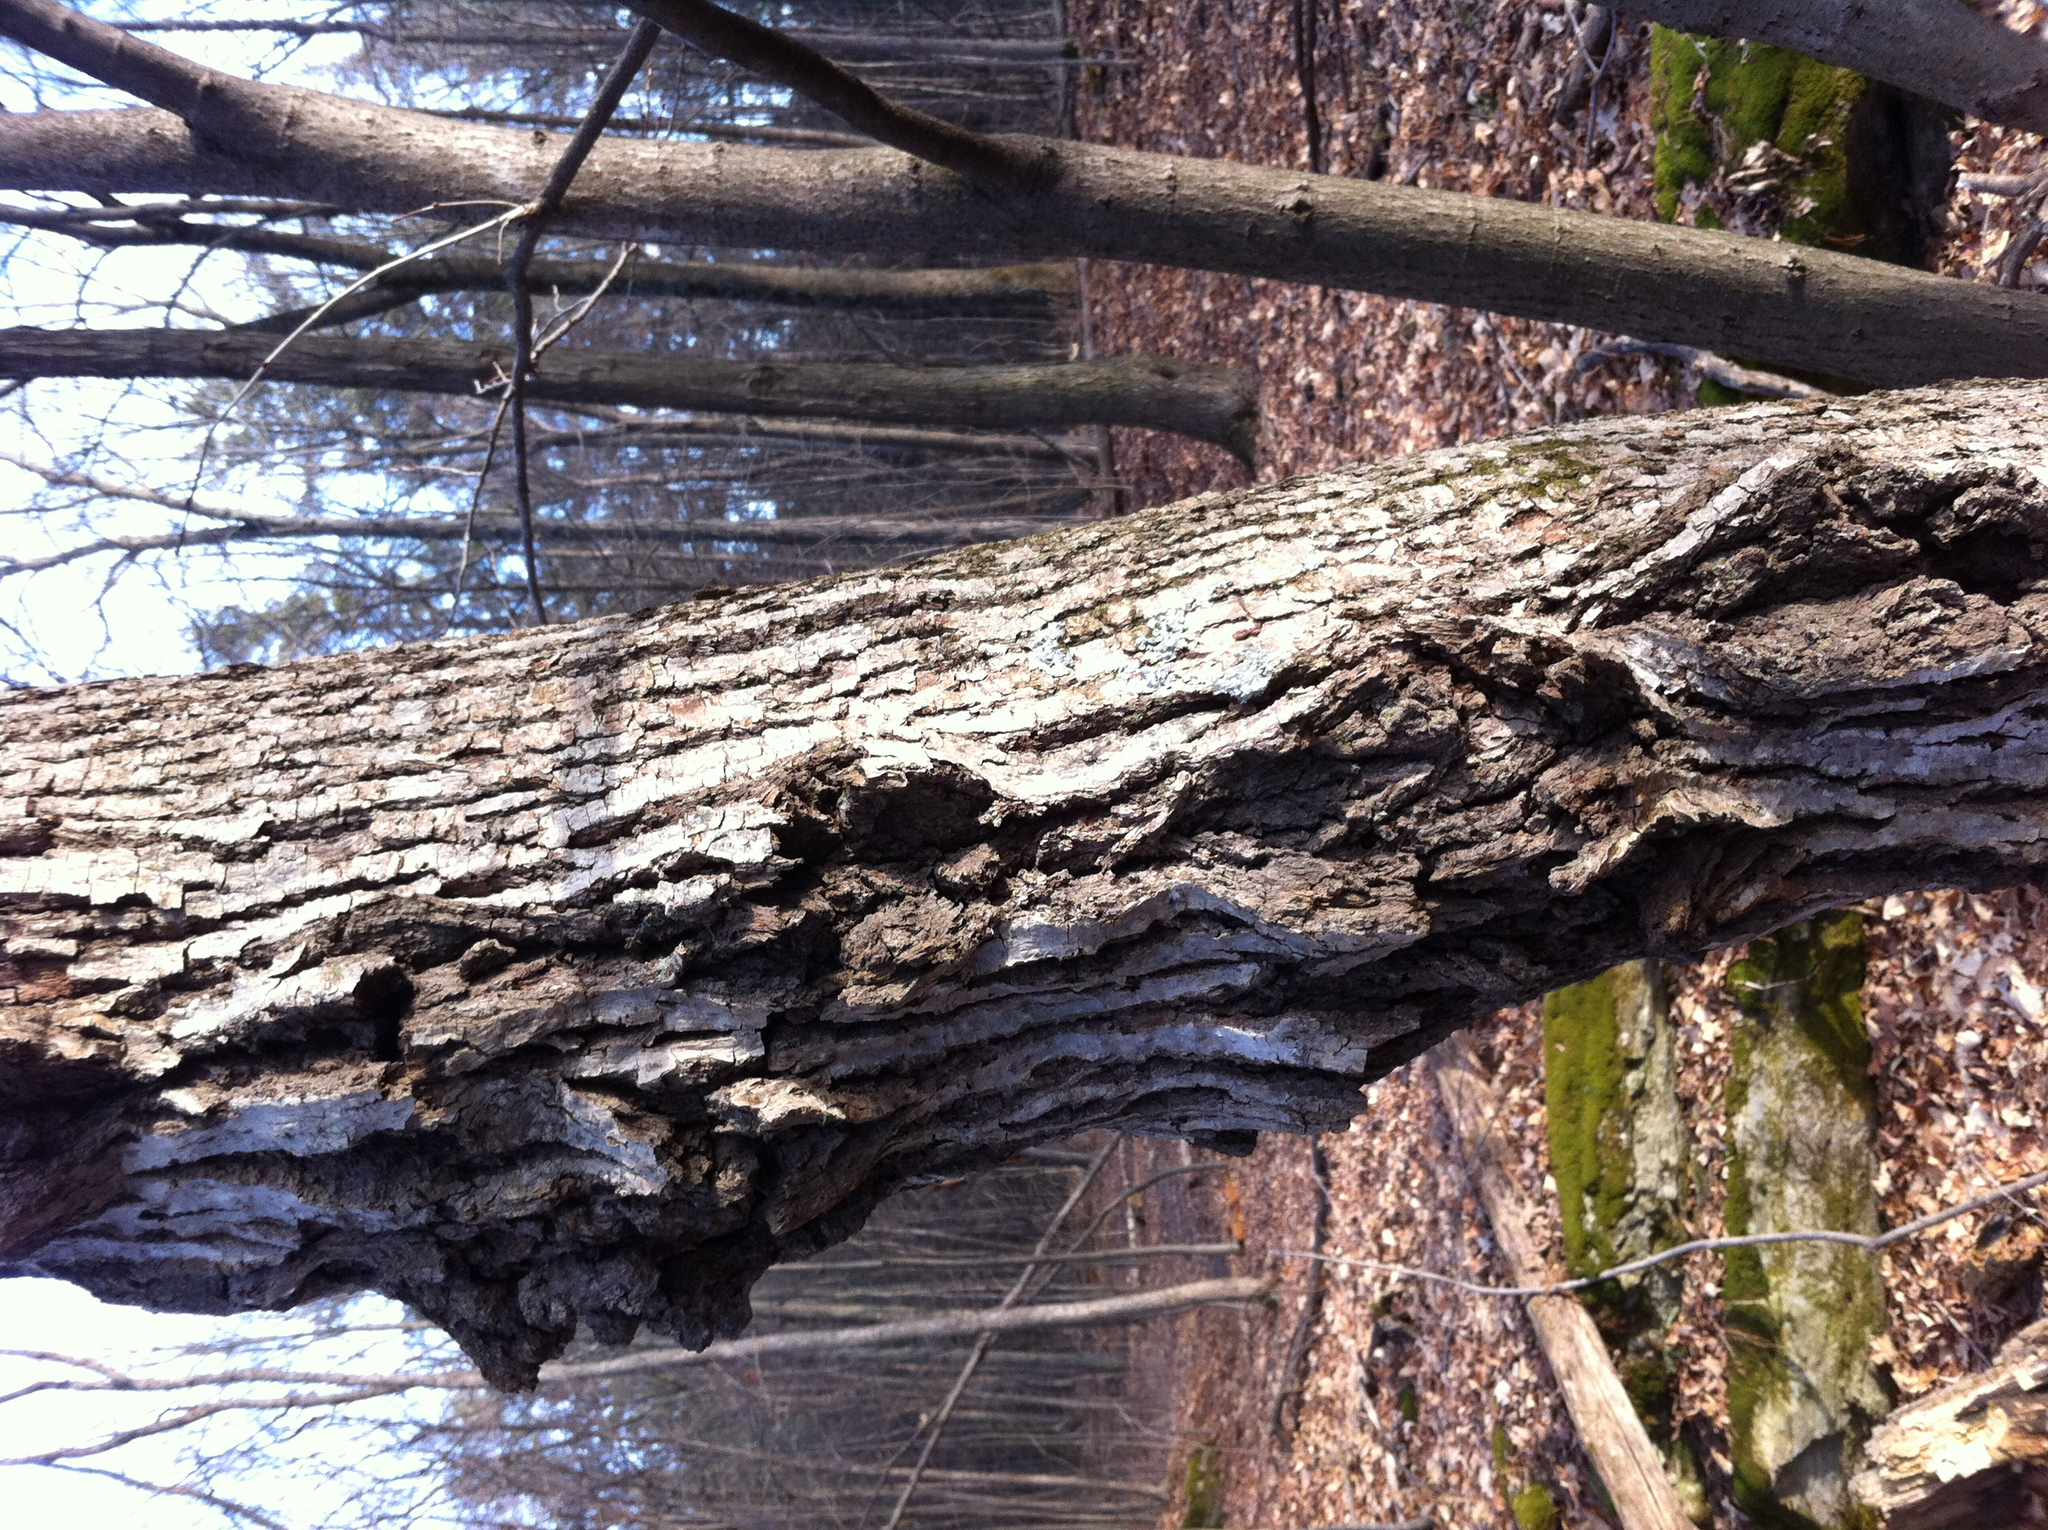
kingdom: Plantae
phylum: Tracheophyta
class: Magnoliopsida
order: Malvales
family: Malvaceae
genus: Tilia
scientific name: Tilia americana
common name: Basswood
